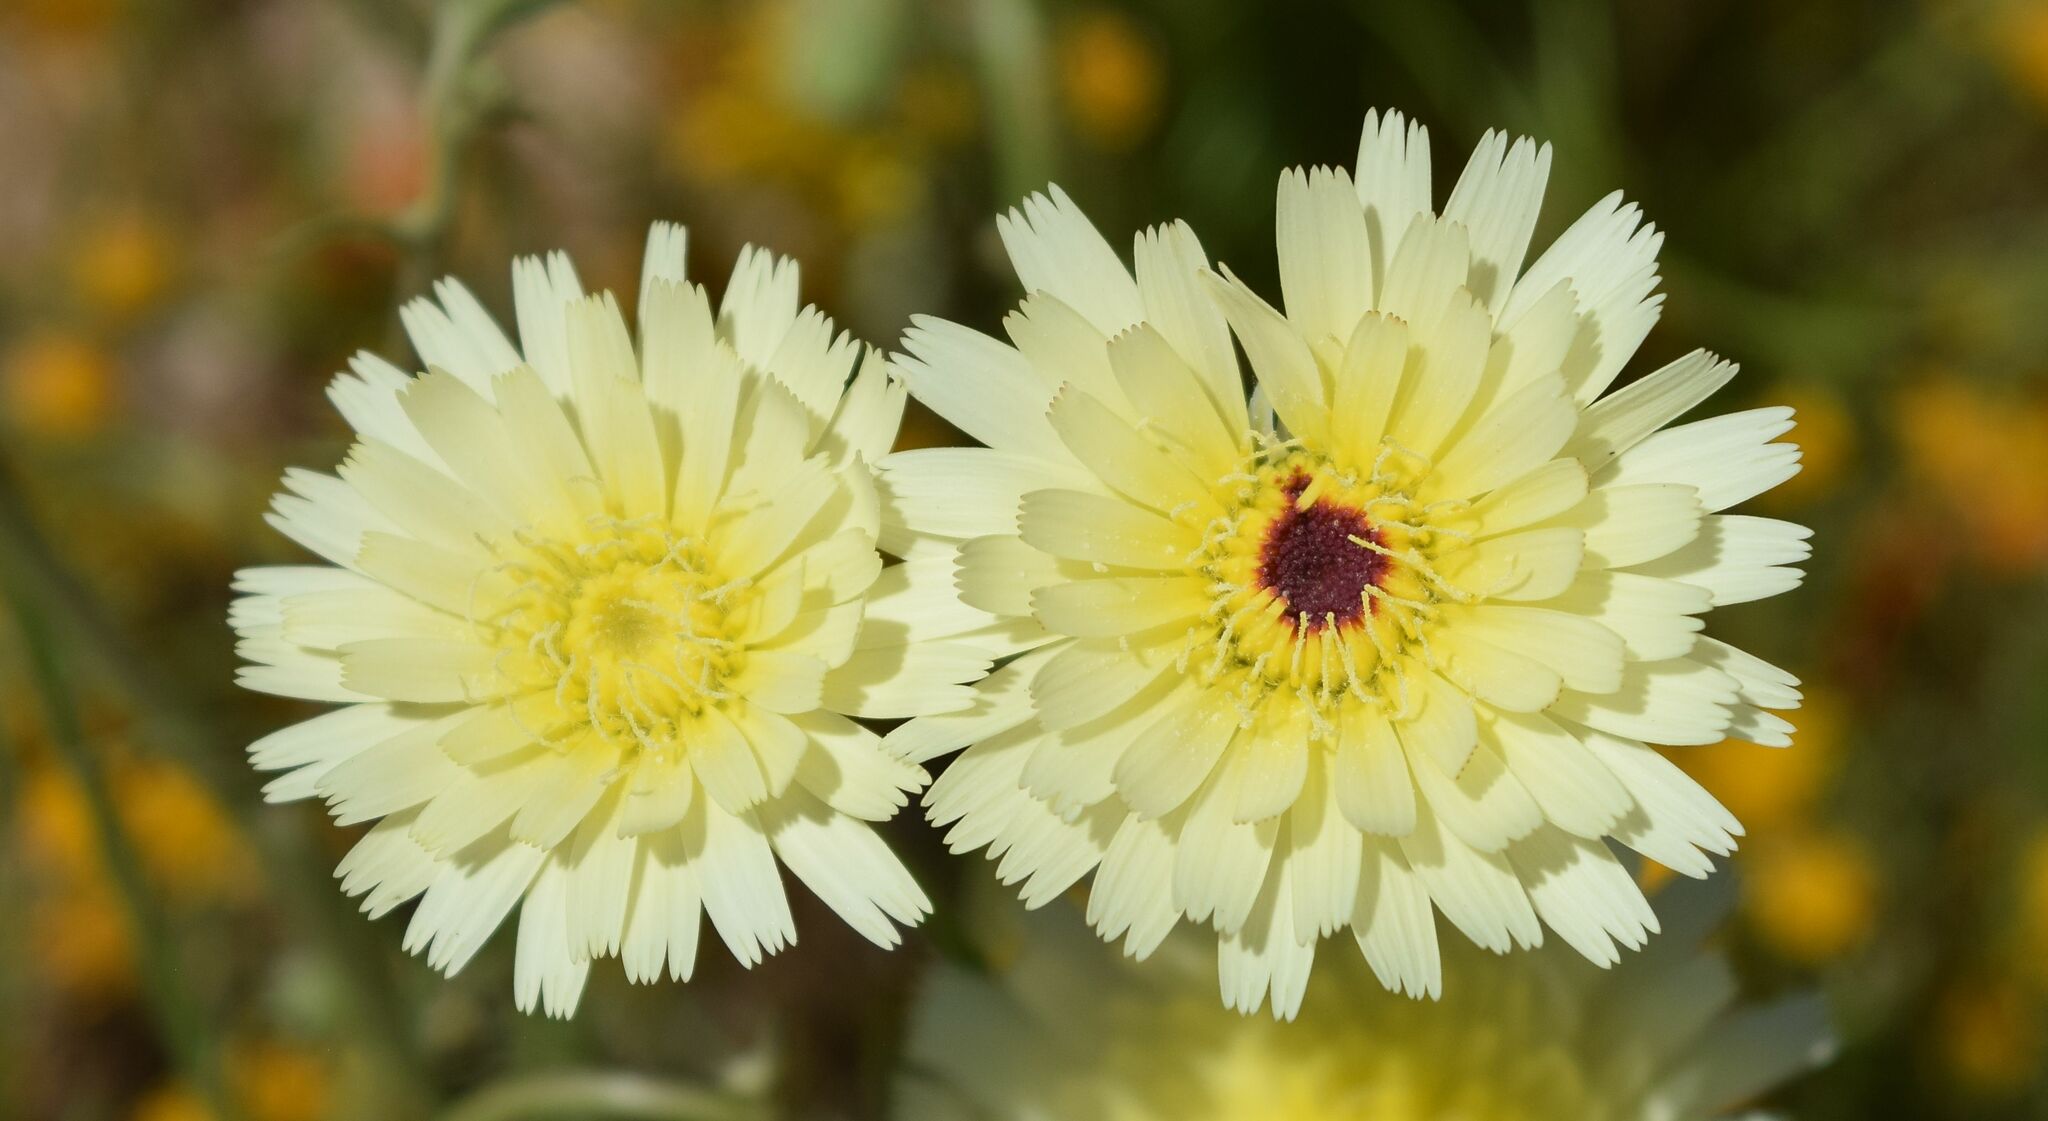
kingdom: Plantae
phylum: Tracheophyta
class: Magnoliopsida
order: Asterales
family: Asteraceae
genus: Malacothrix
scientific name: Malacothrix glabrata
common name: Smooth desert-dandelion
